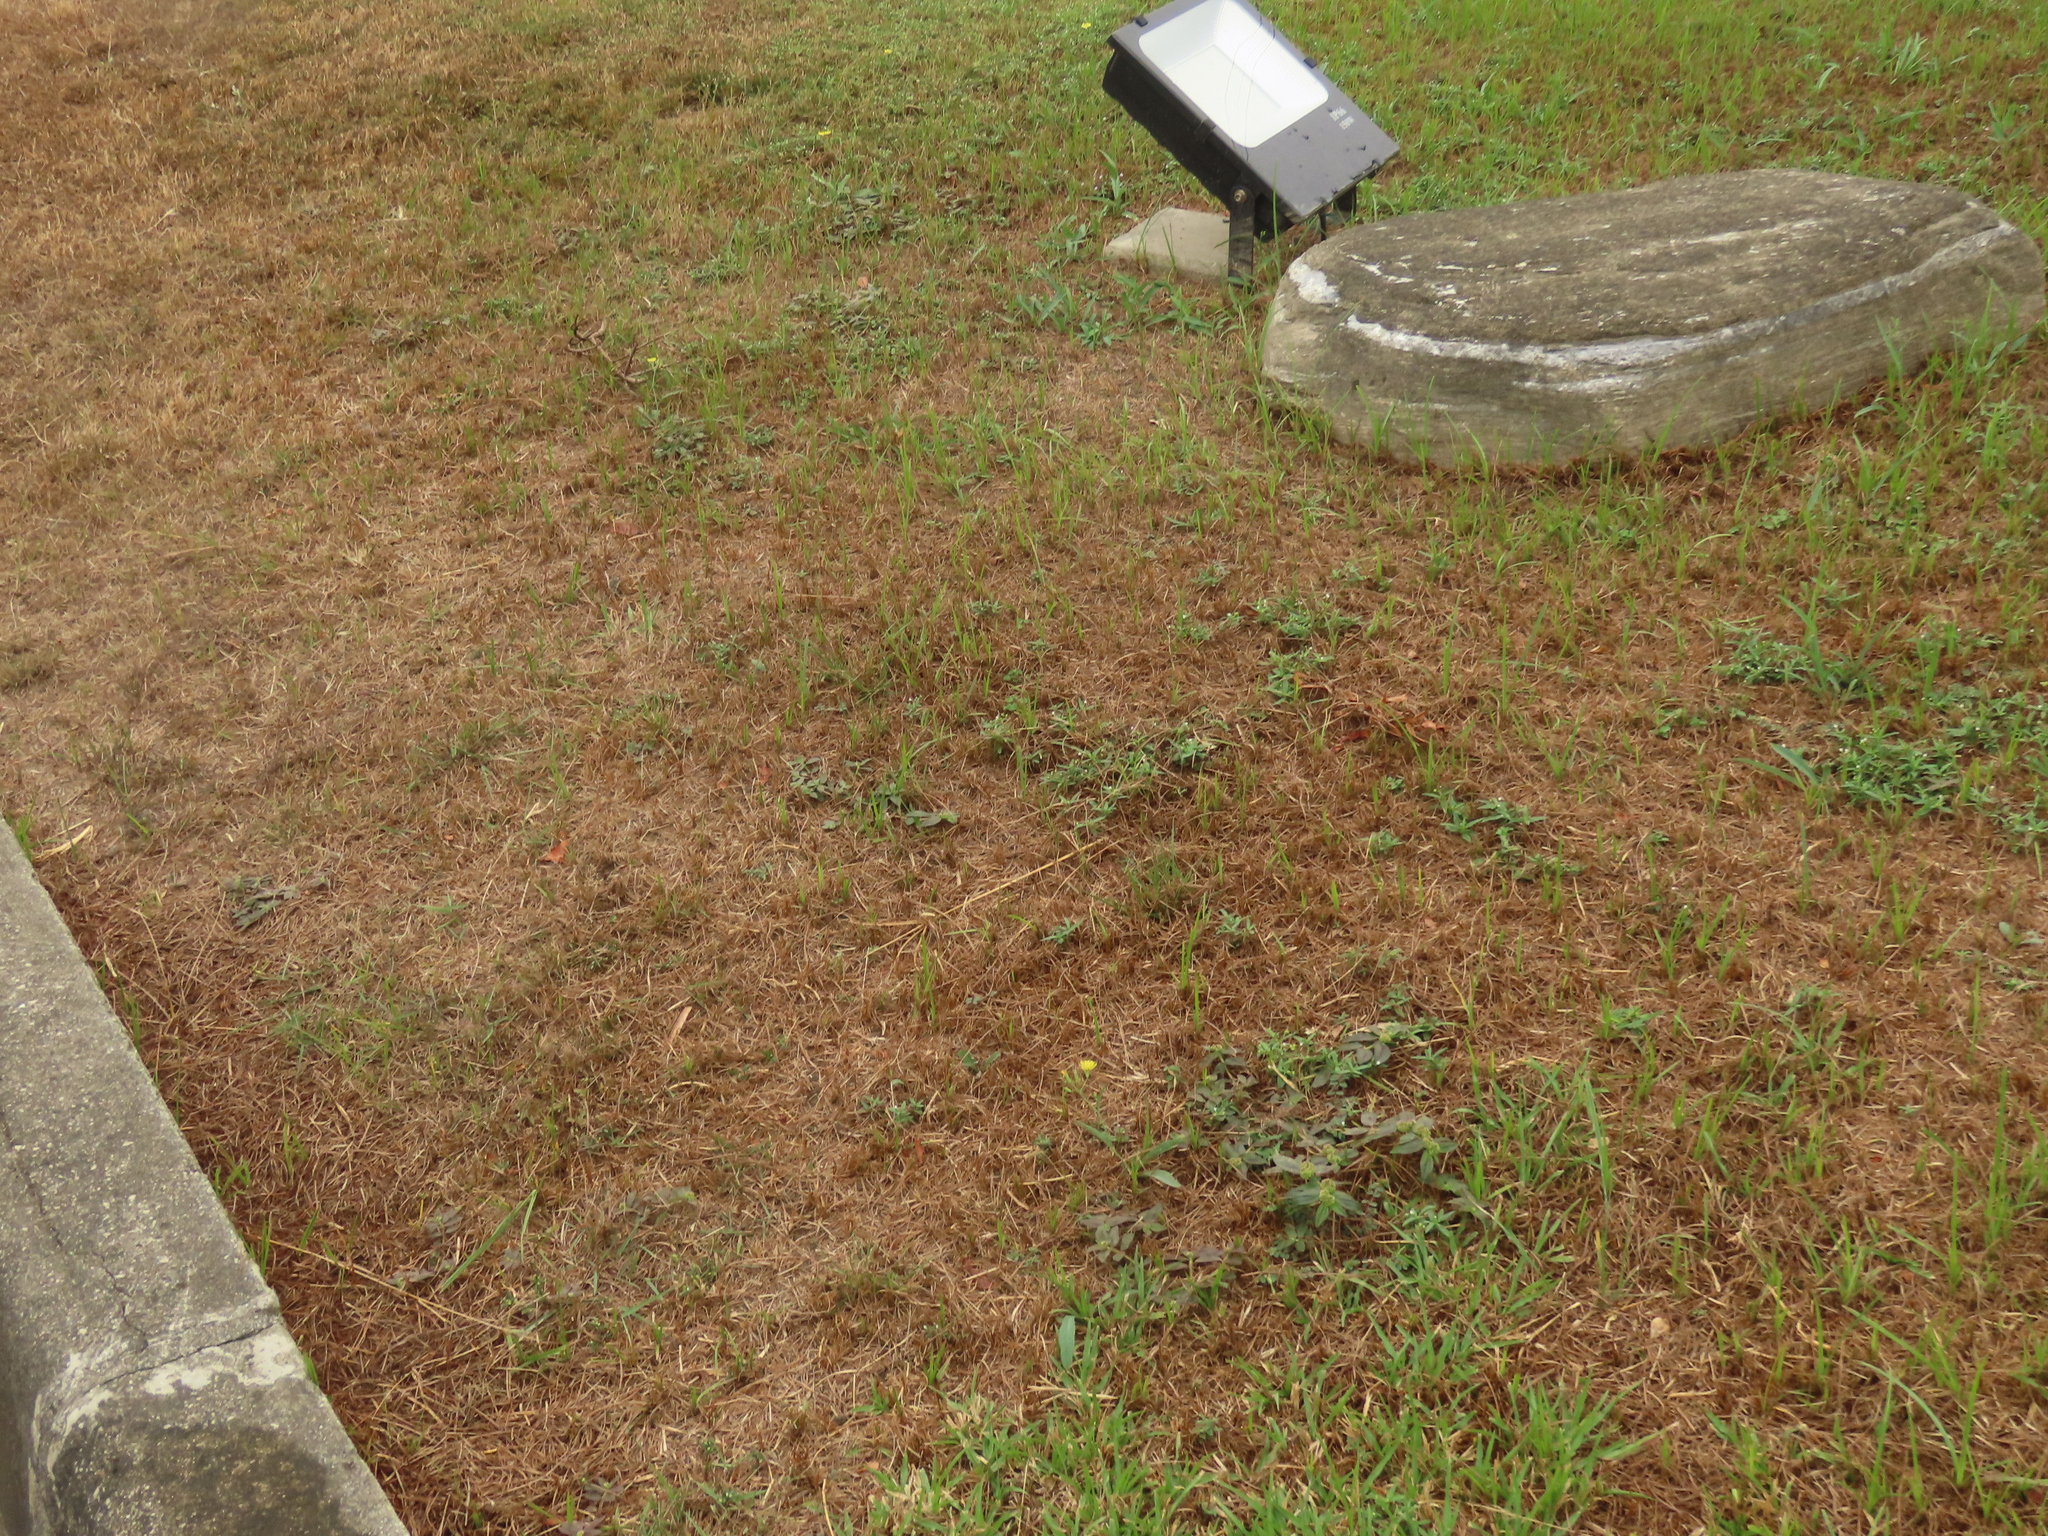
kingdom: Plantae
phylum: Tracheophyta
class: Magnoliopsida
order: Malpighiales
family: Euphorbiaceae
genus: Euphorbia
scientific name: Euphorbia hirta
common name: Pillpod sandmat
